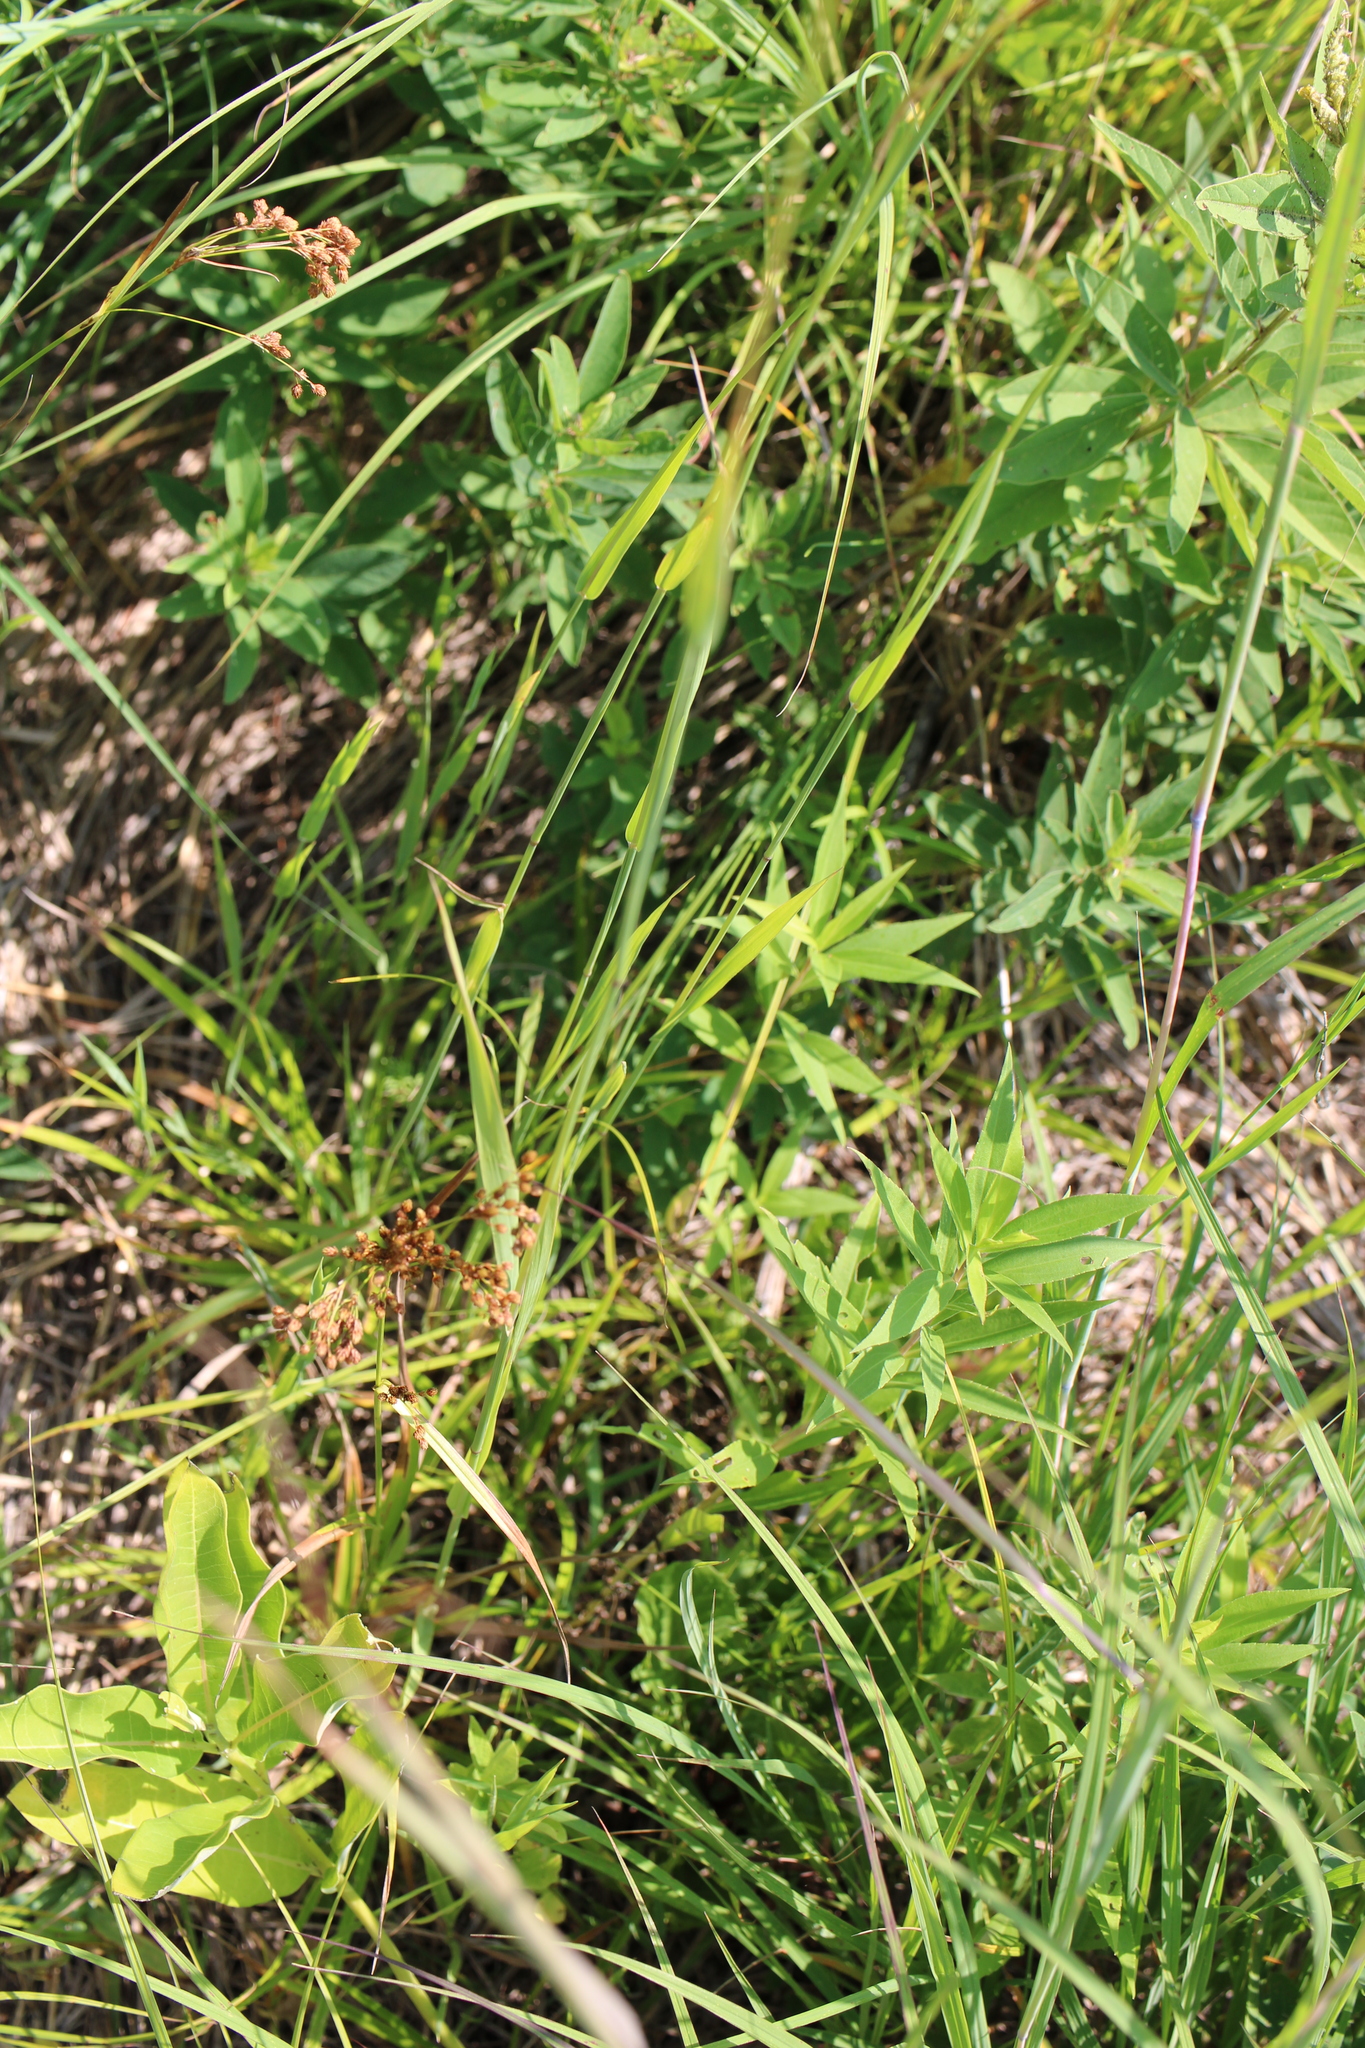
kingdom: Plantae
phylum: Tracheophyta
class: Liliopsida
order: Poales
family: Poaceae
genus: Phleum
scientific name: Phleum pratense
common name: Timothy grass
